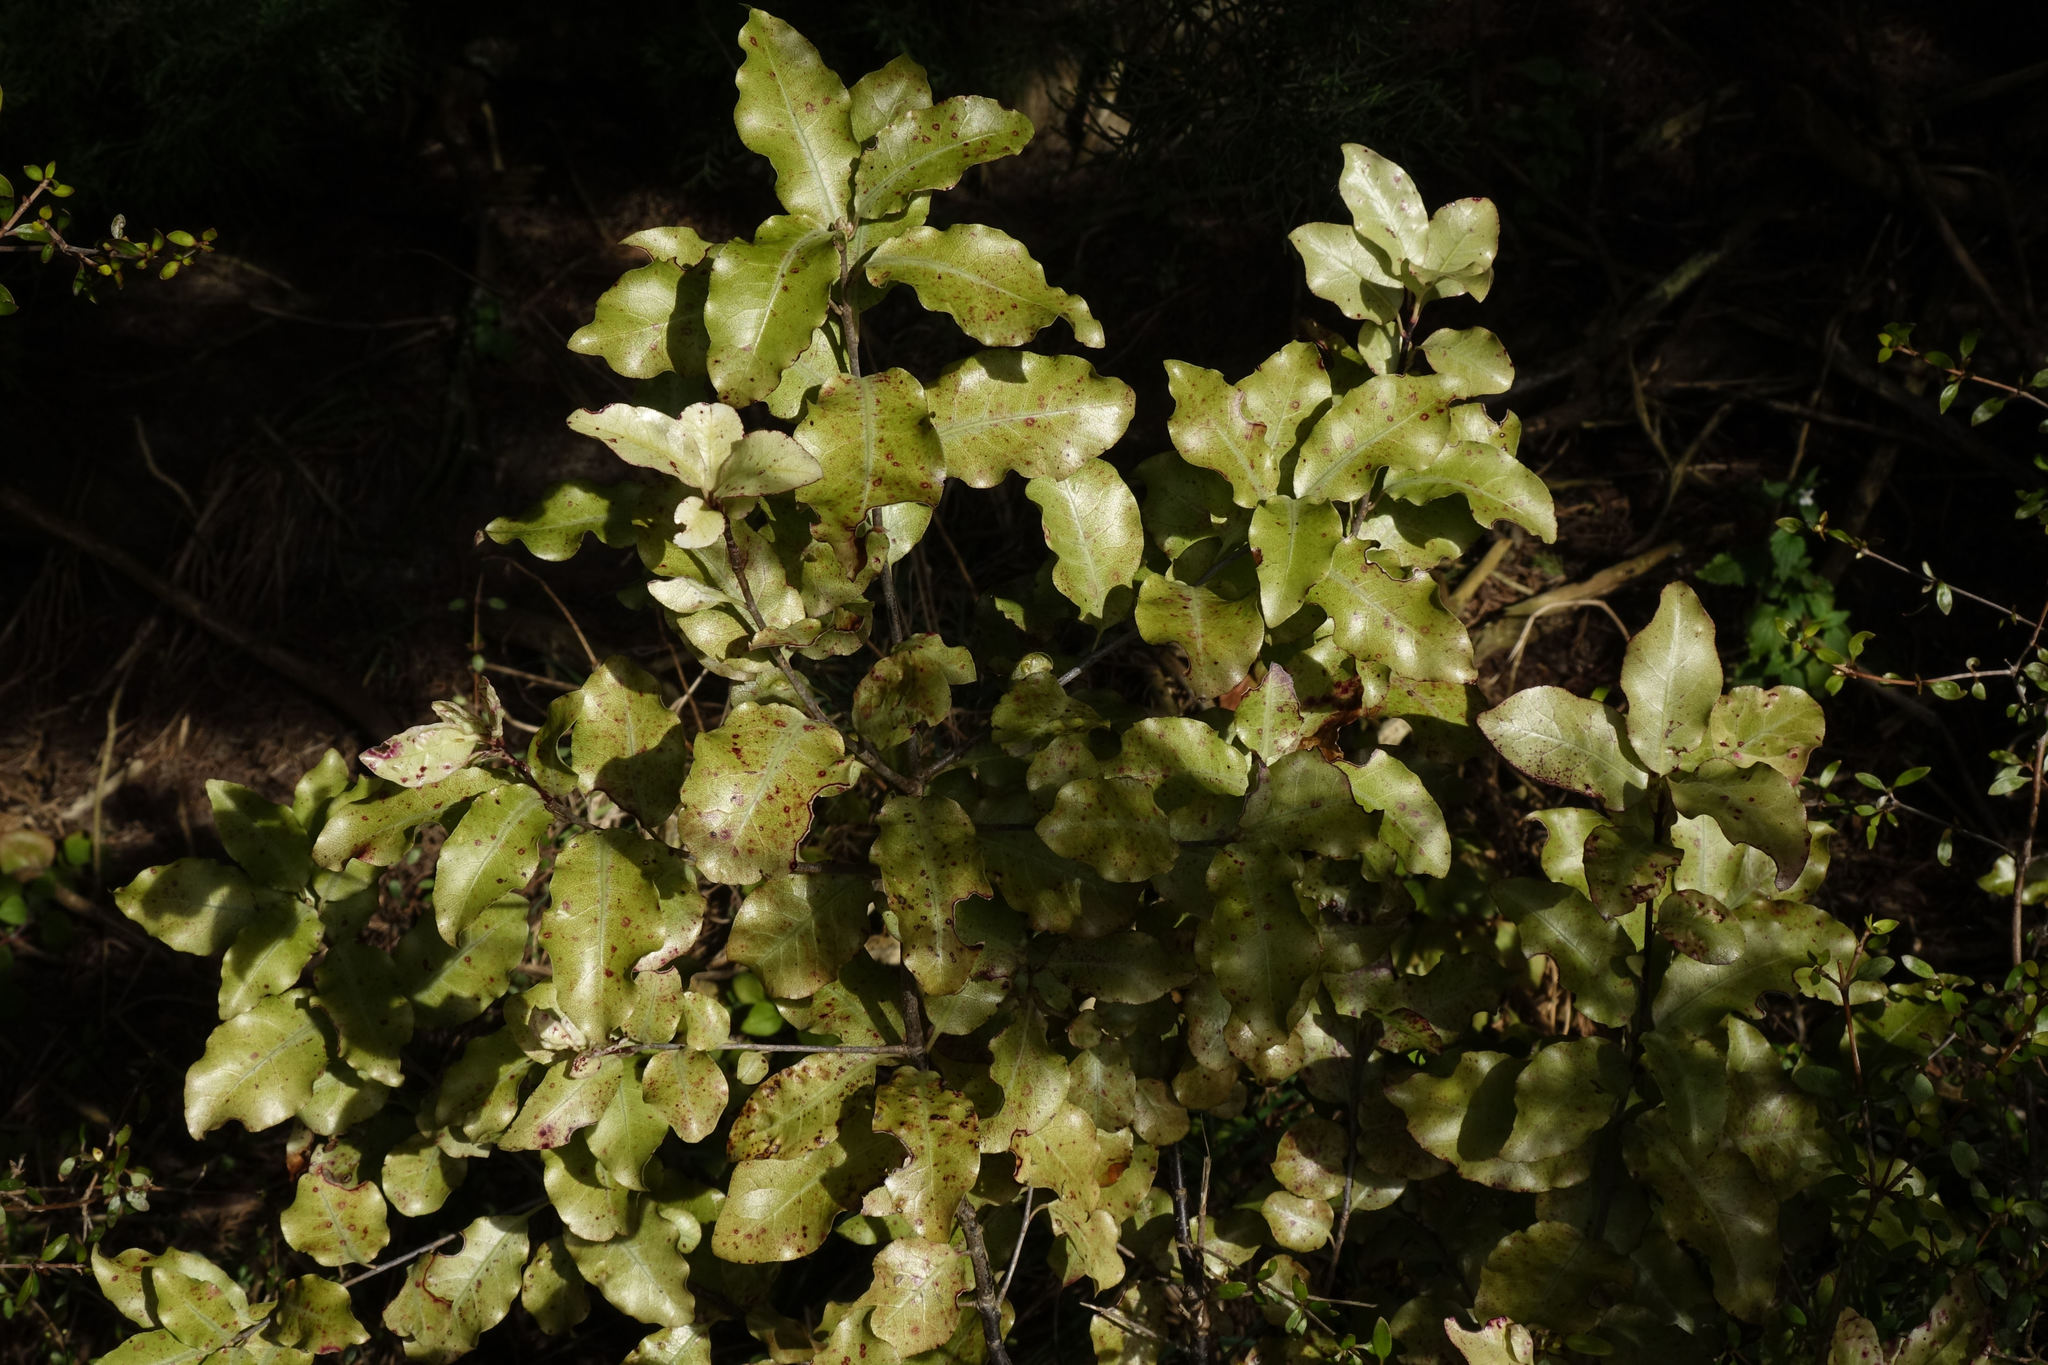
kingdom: Plantae
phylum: Tracheophyta
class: Magnoliopsida
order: Apiales
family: Pittosporaceae
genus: Pittosporum
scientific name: Pittosporum tenuifolium
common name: Kohuhu
